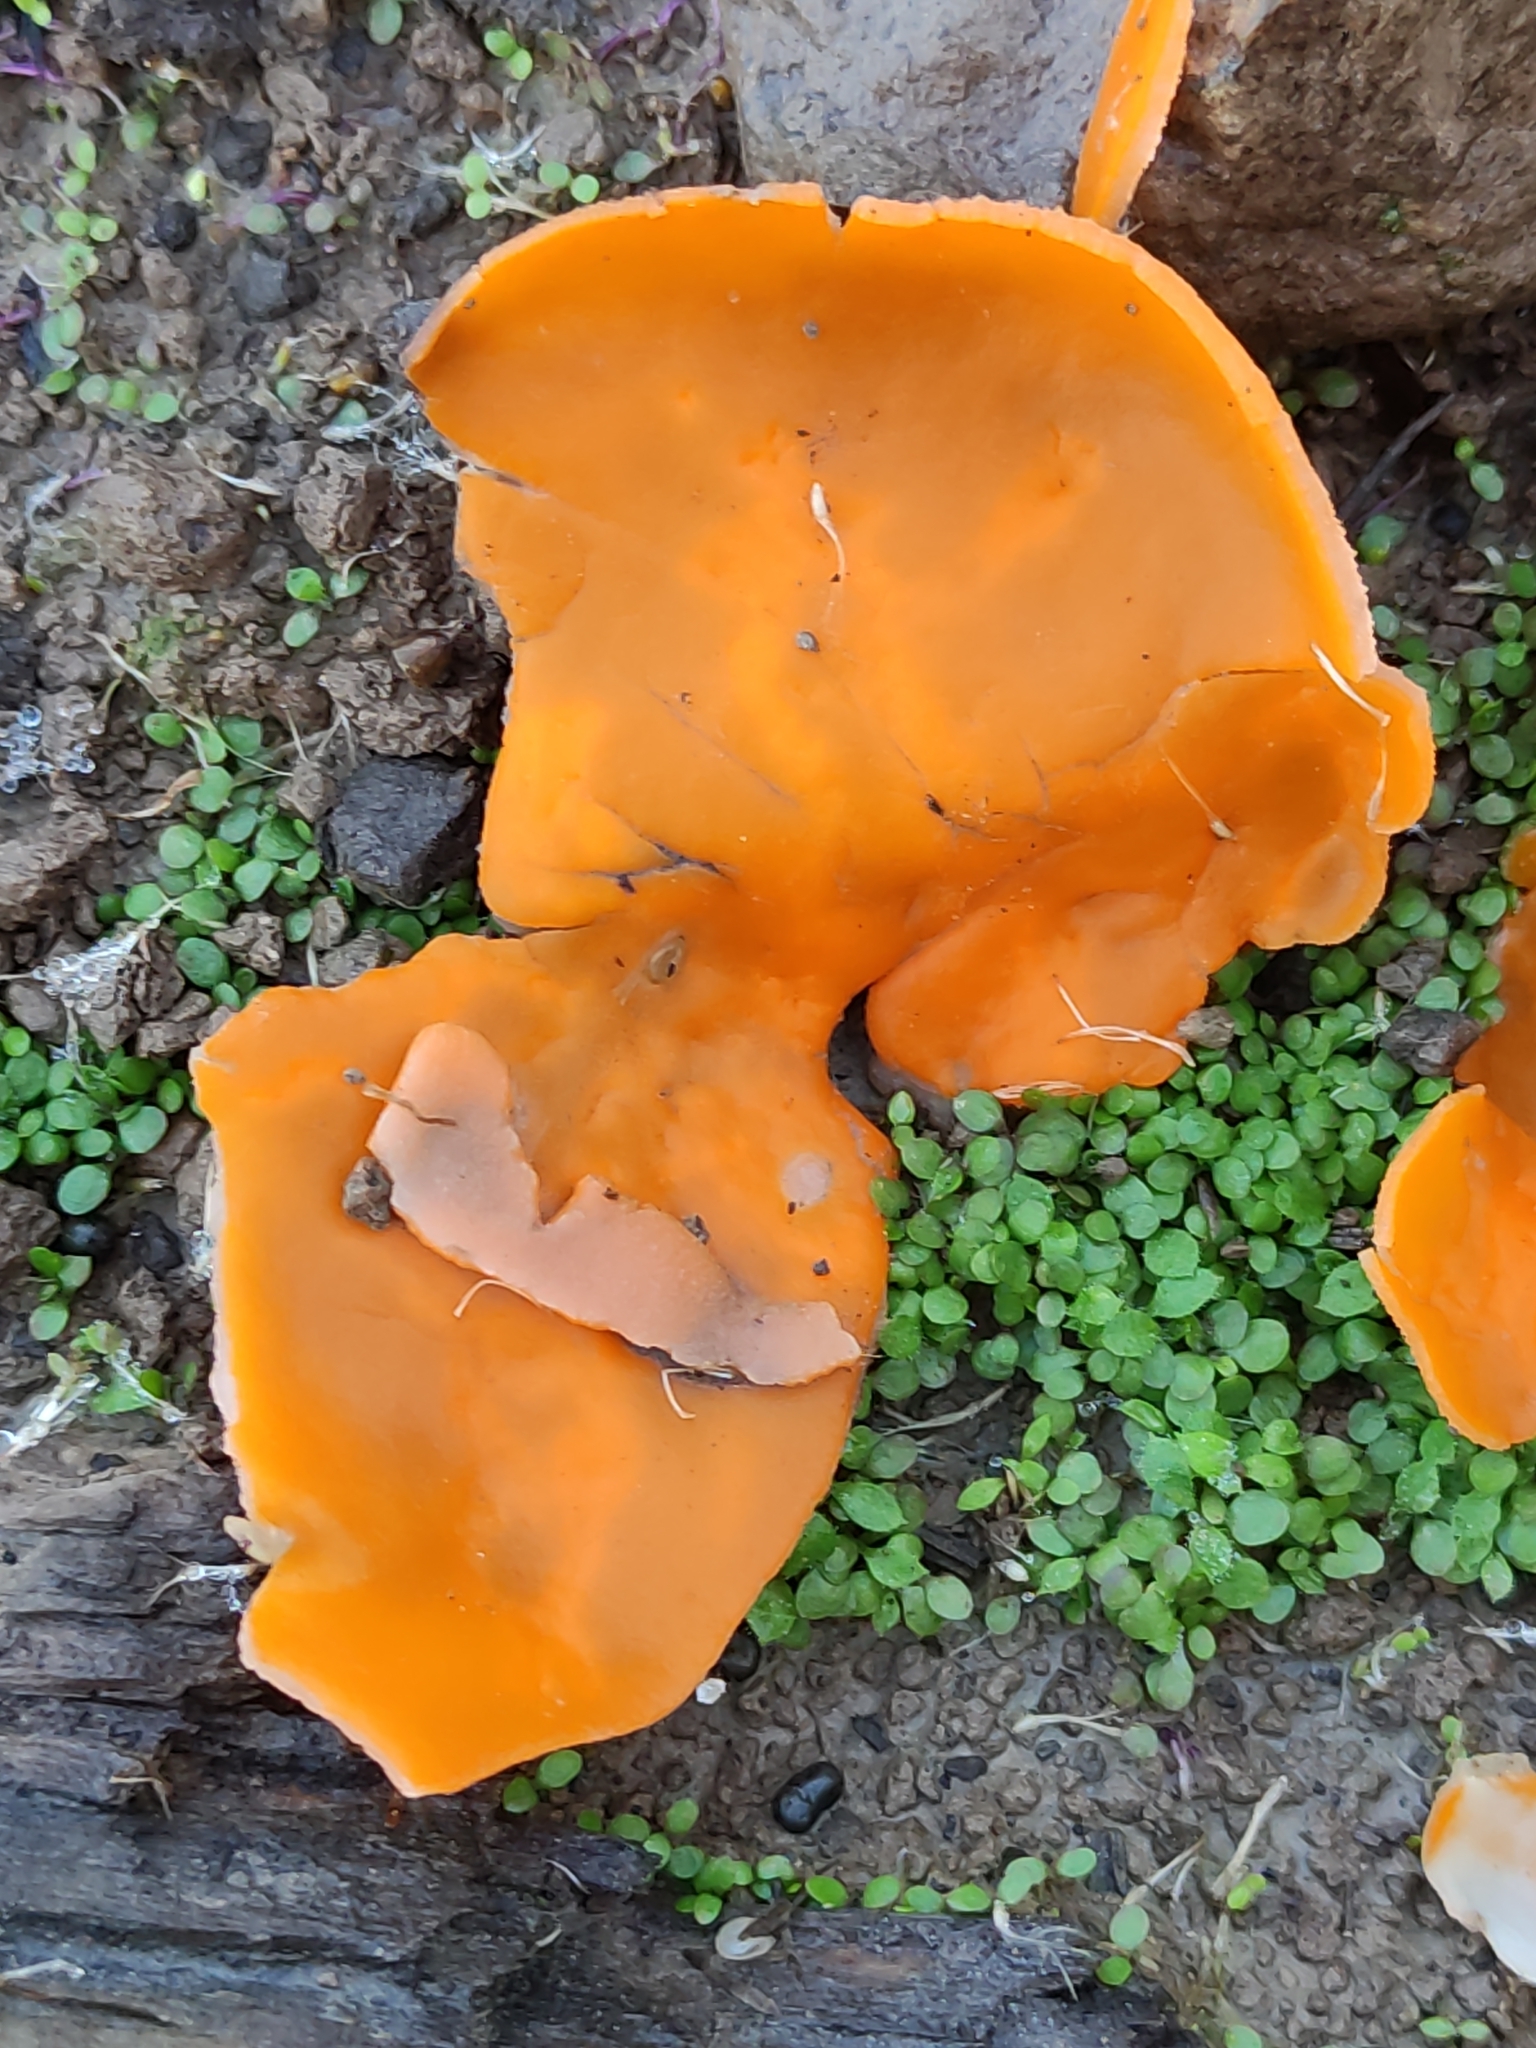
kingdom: Fungi
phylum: Ascomycota
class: Pezizomycetes
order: Pezizales
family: Pyronemataceae
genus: Aleuria
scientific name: Aleuria aurantia
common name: Orange peel fungus
